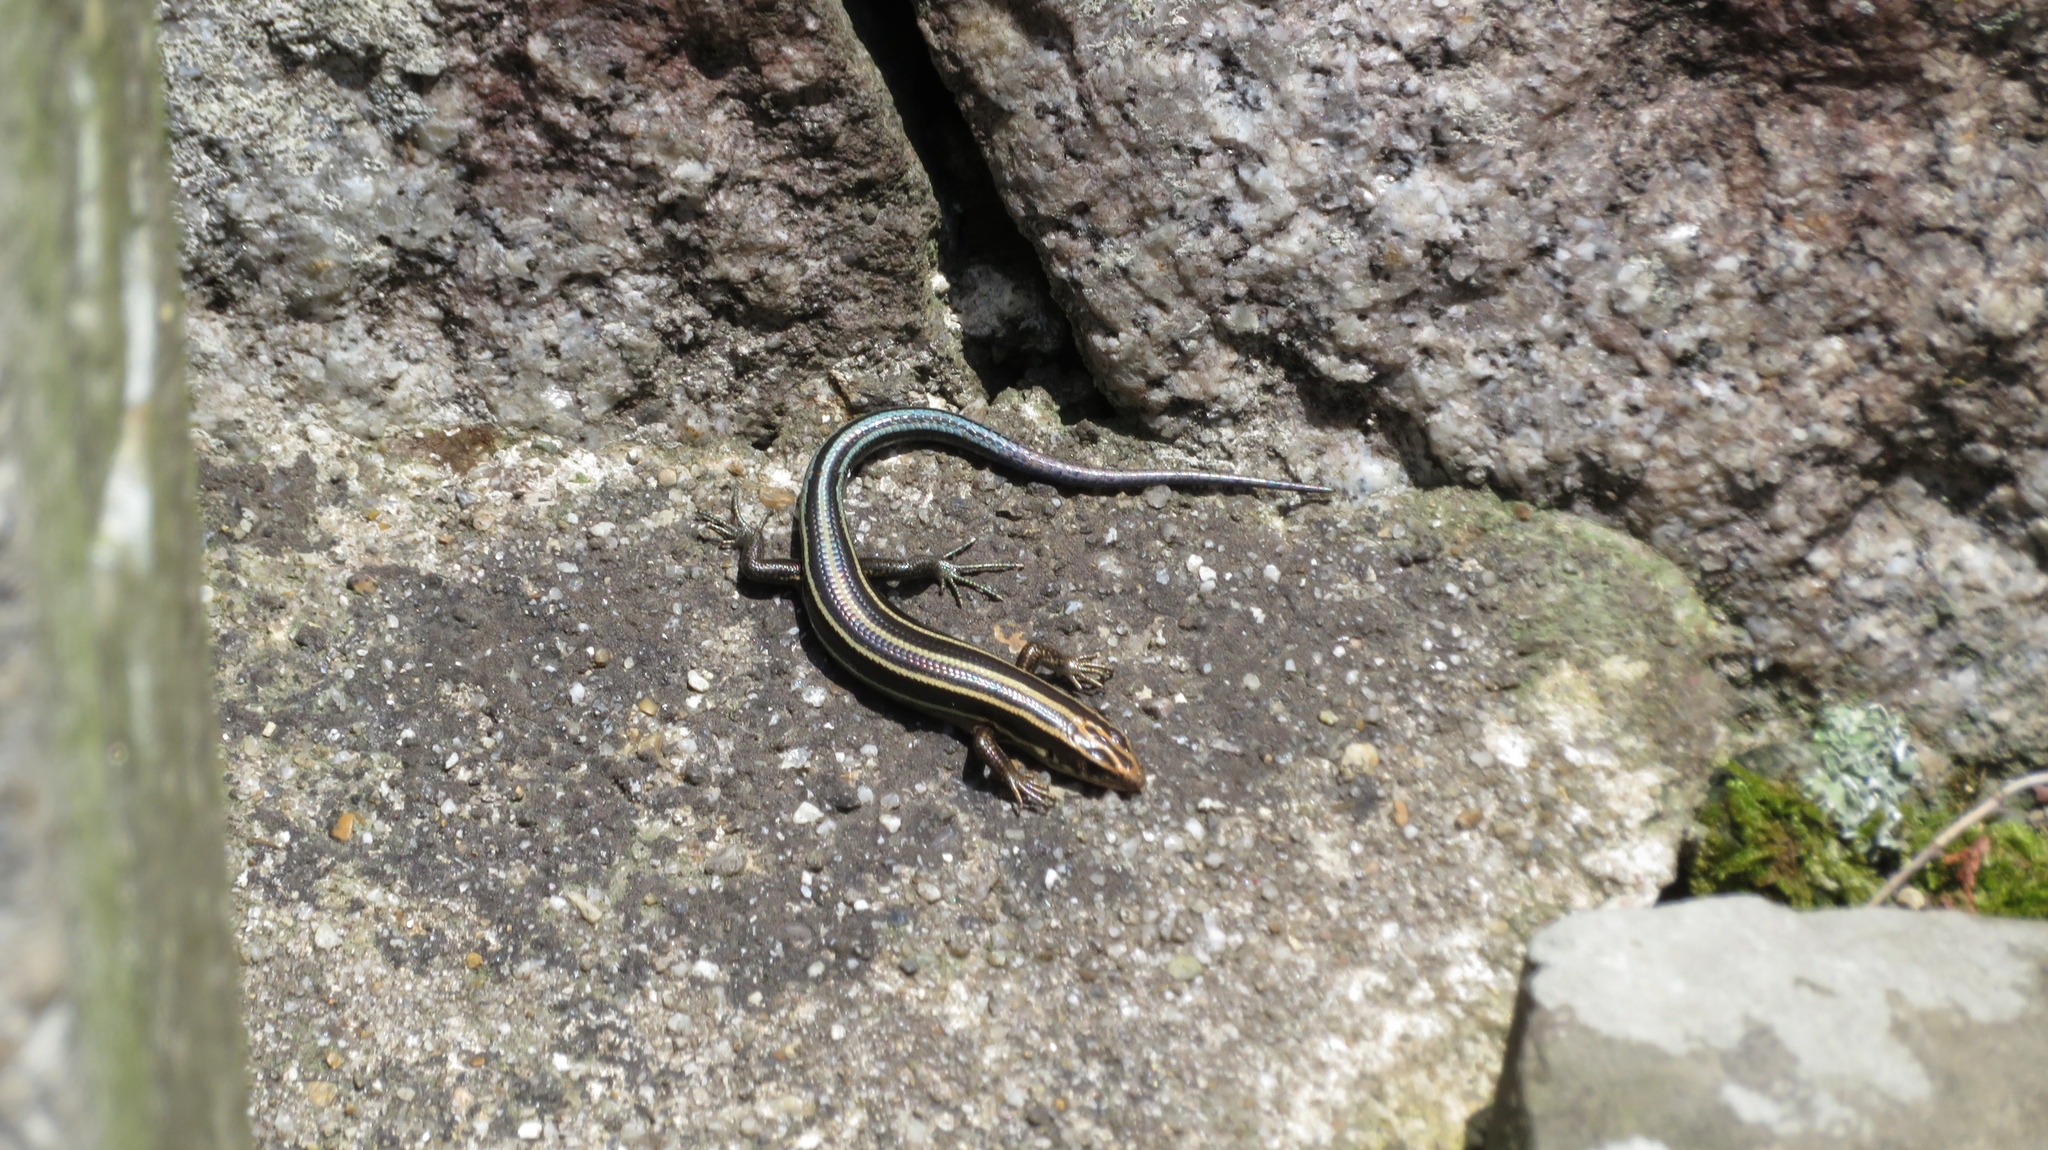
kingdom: Animalia
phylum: Chordata
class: Squamata
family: Scincidae
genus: Plestiodon
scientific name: Plestiodon japonicus
